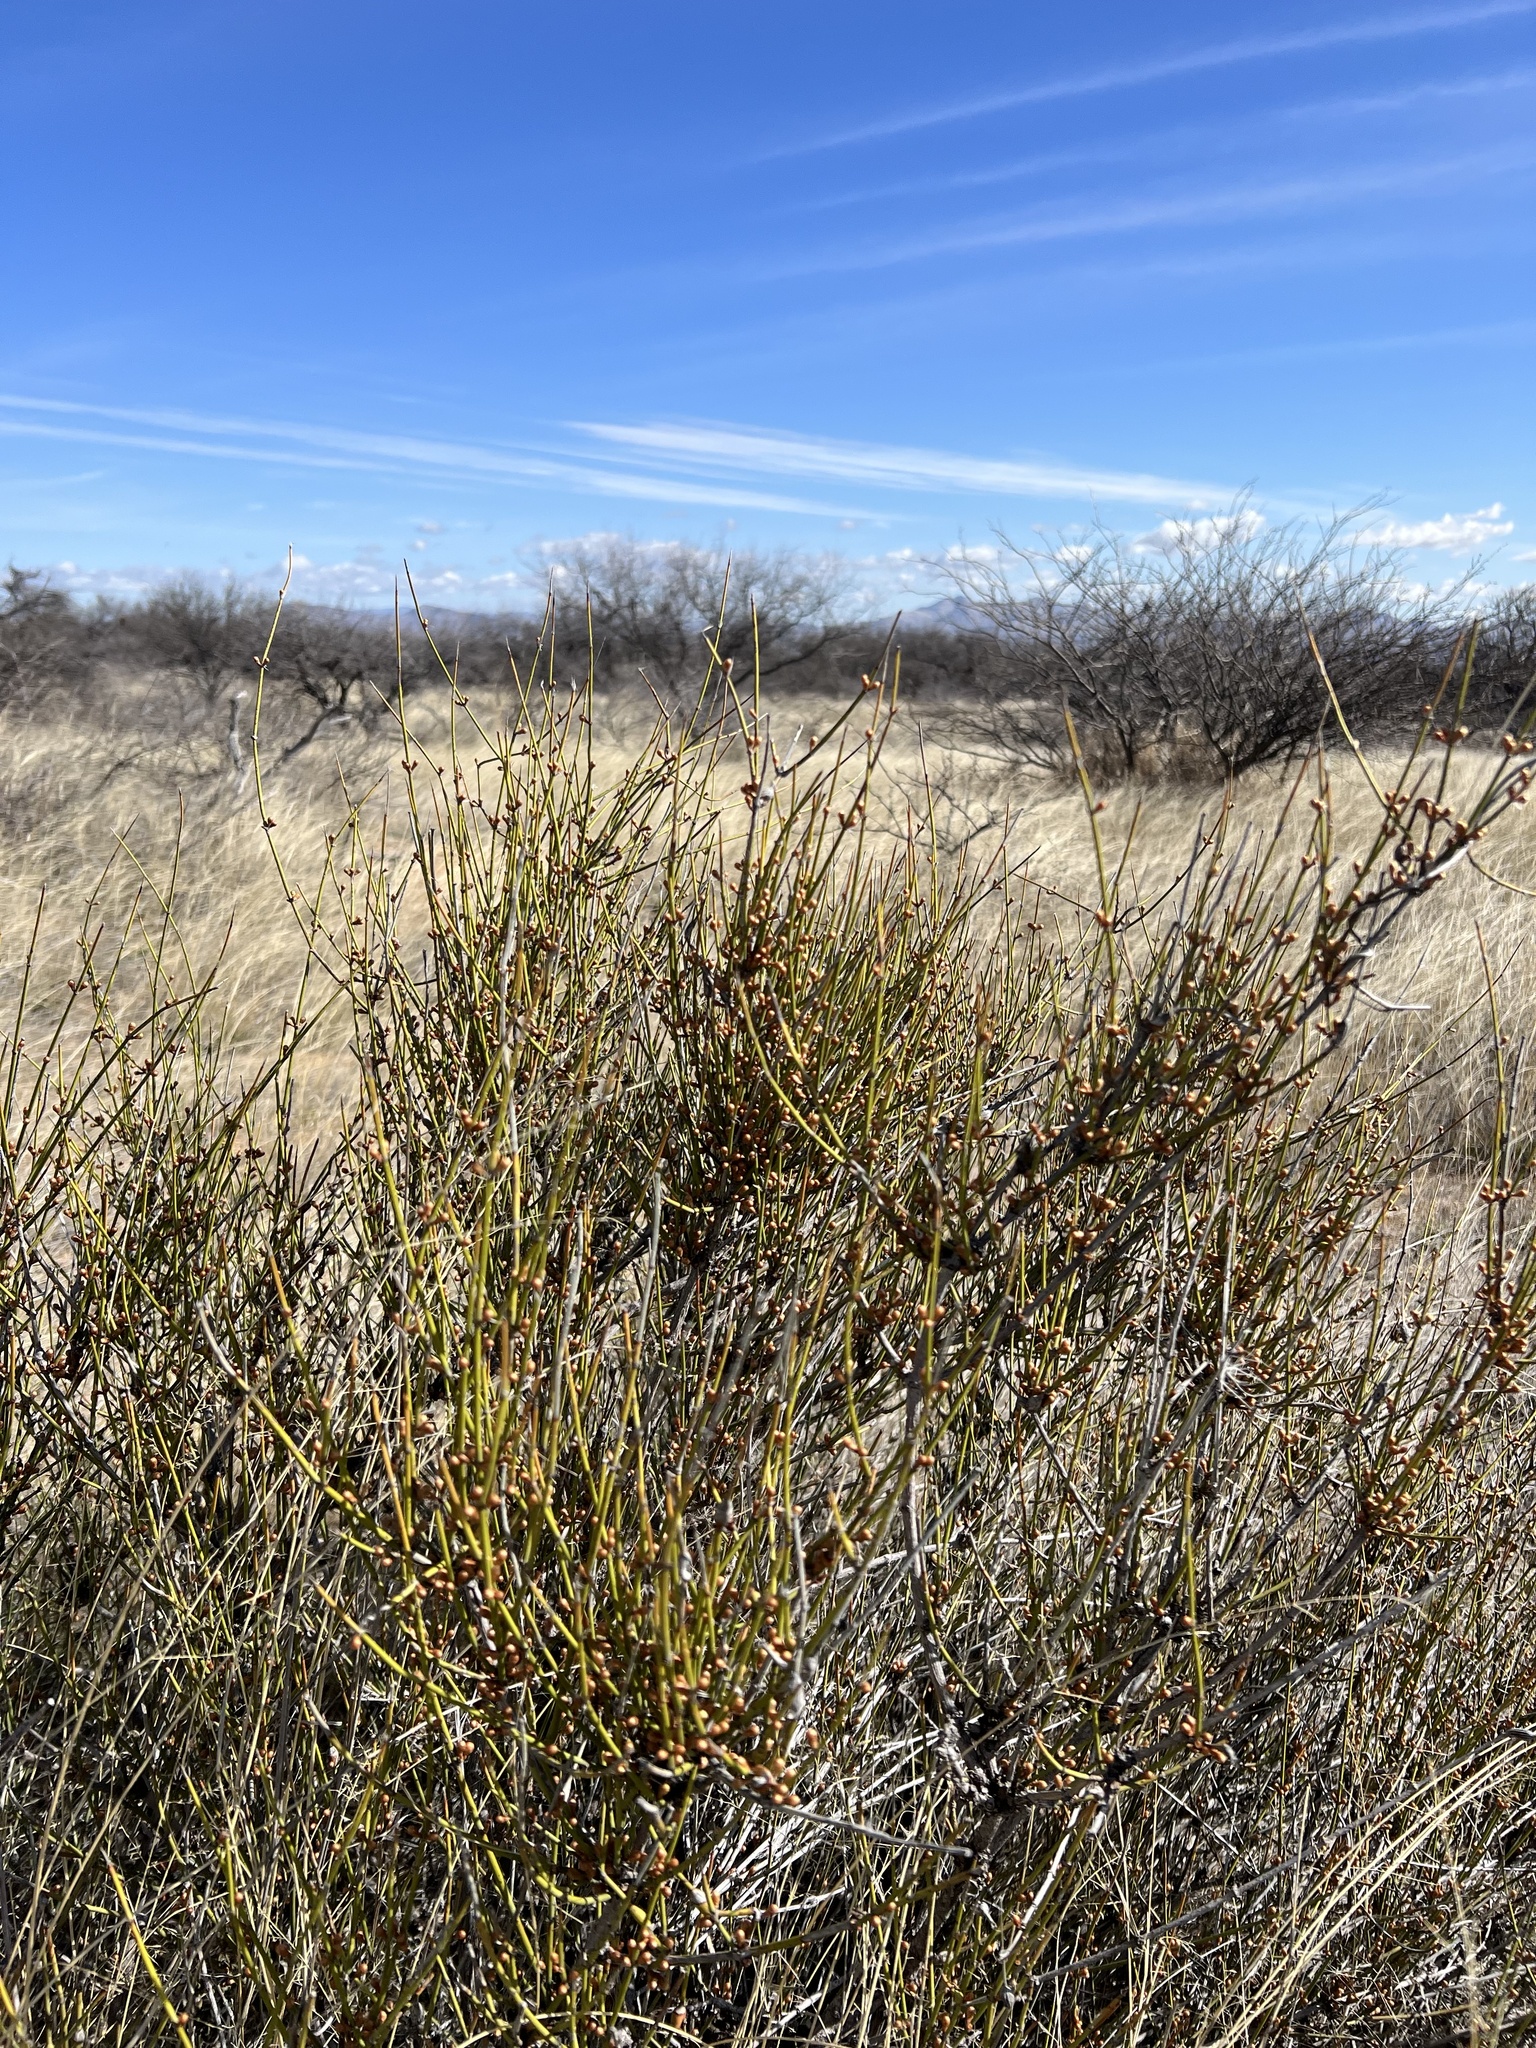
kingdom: Plantae
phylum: Tracheophyta
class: Gnetopsida
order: Ephedrales
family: Ephedraceae
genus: Ephedra
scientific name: Ephedra trifurca
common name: Mexican-tea
